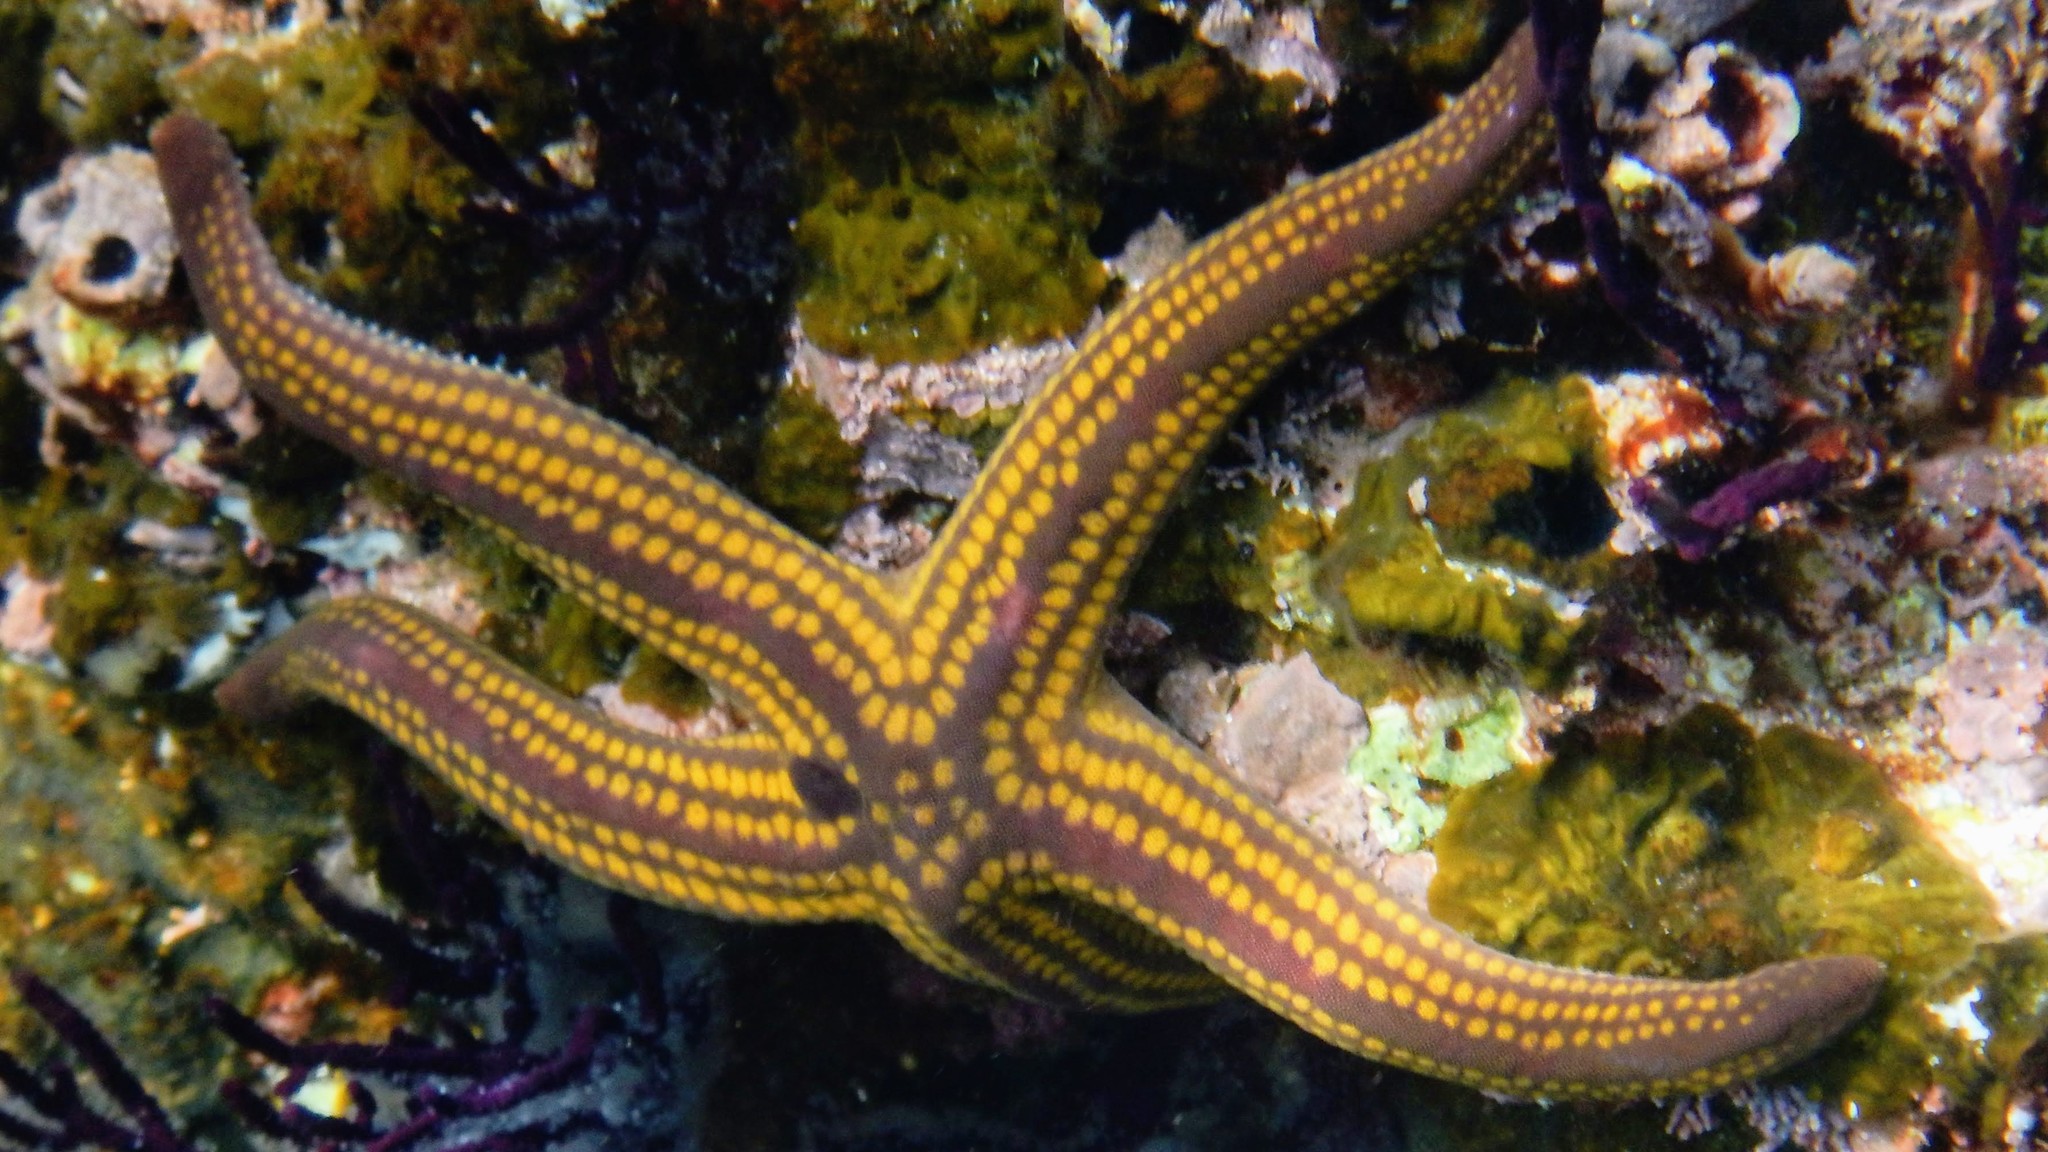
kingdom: Animalia
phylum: Echinodermata
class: Asteroidea
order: Valvatida
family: Ophidiasteridae
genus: Pharia
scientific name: Pharia pyramidata
